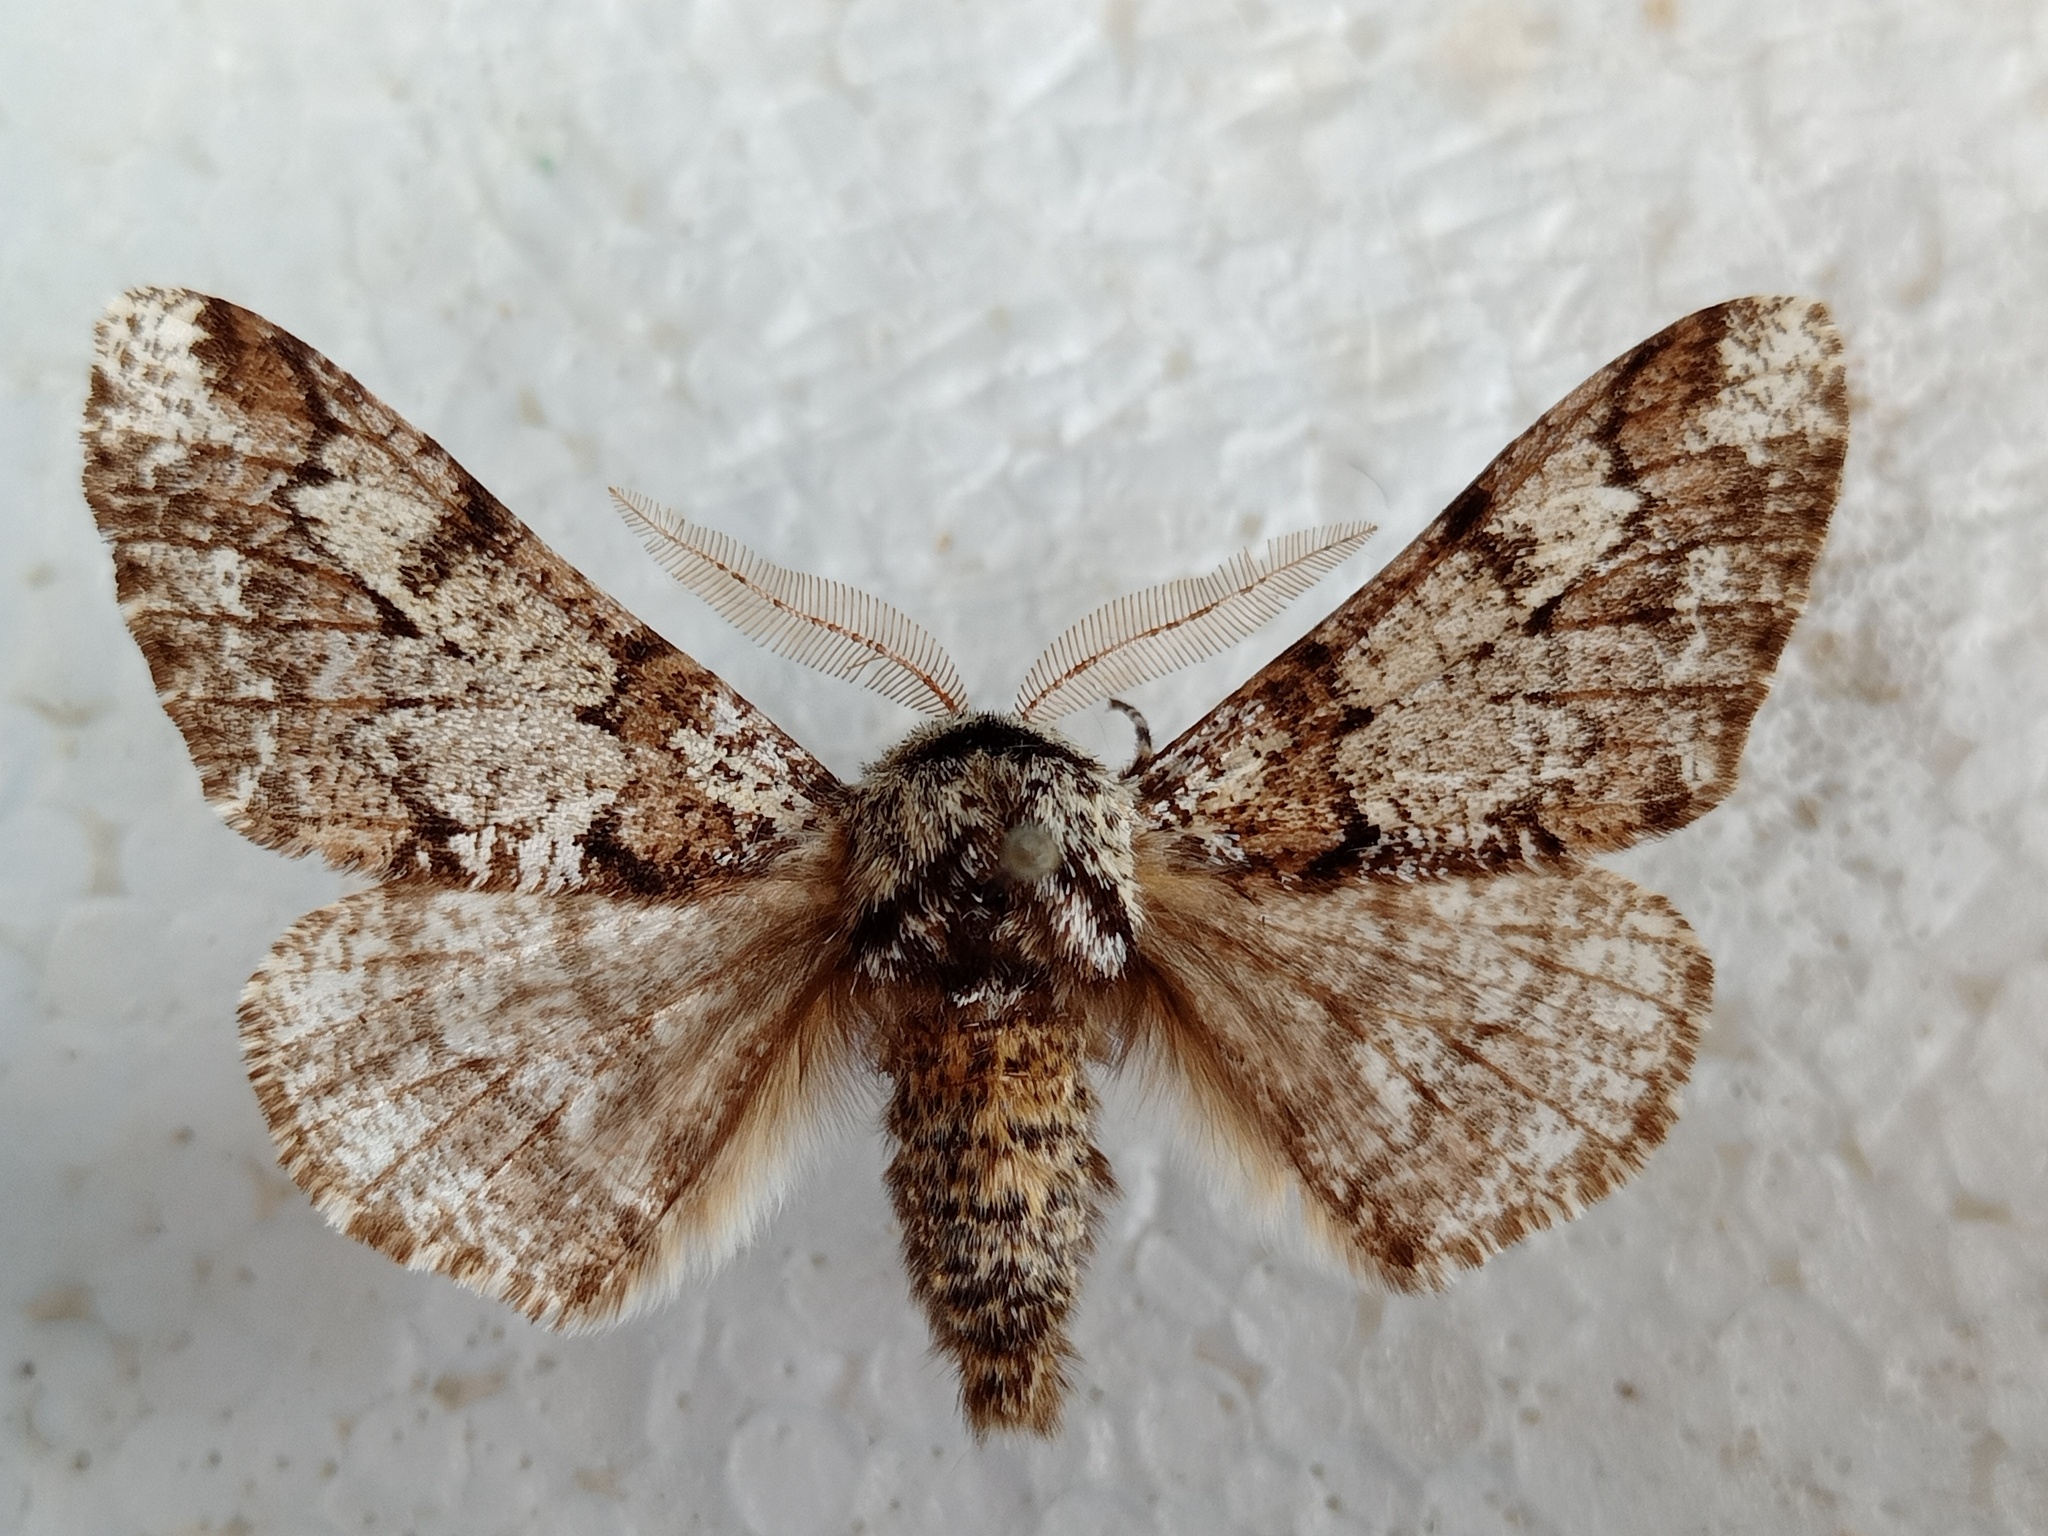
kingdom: Animalia
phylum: Arthropoda
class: Insecta
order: Lepidoptera
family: Geometridae
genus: Biston
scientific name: Biston strataria
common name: Oak beauty
